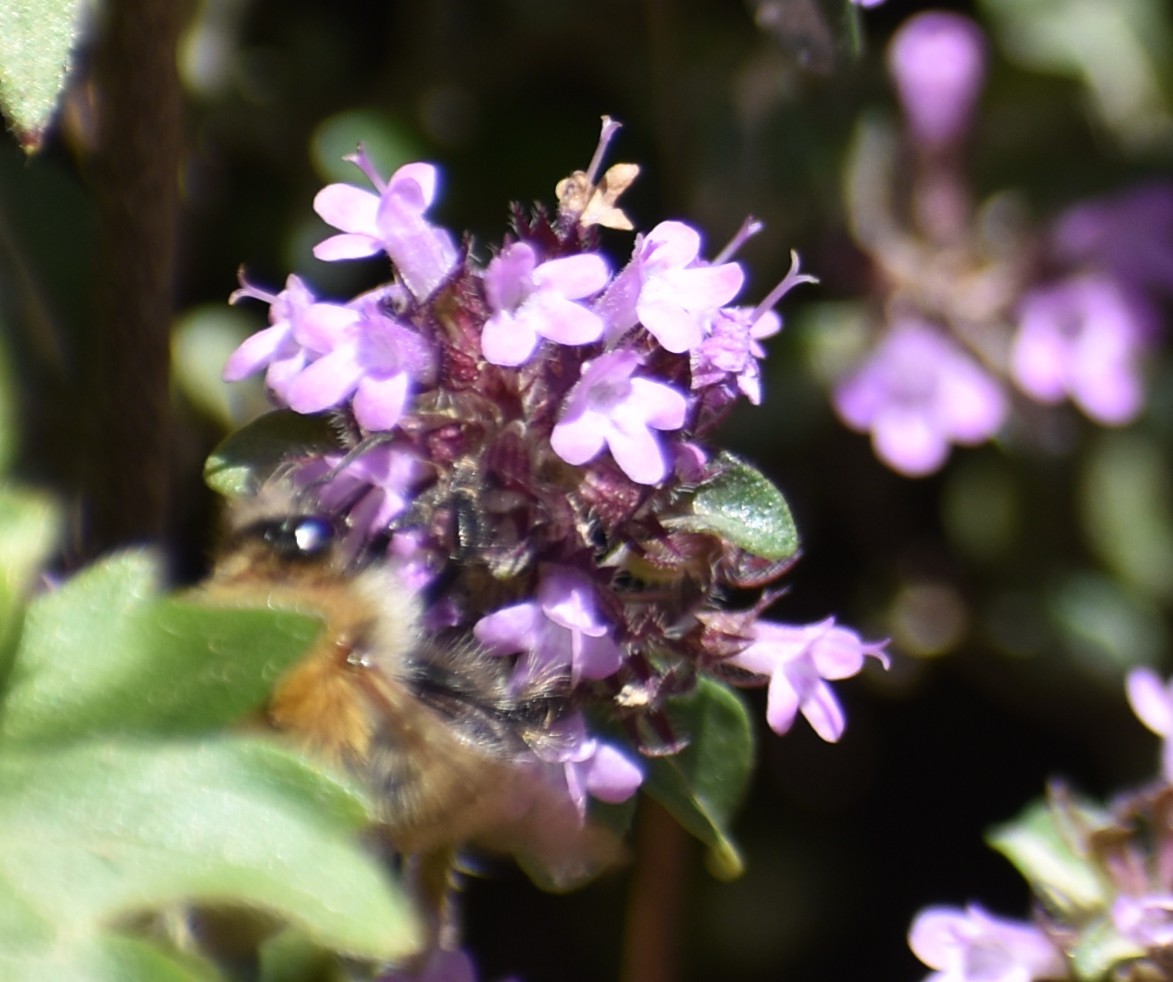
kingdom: Animalia
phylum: Arthropoda
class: Insecta
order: Hymenoptera
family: Apidae
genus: Bombus
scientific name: Bombus pascuorum
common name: Common carder bee
